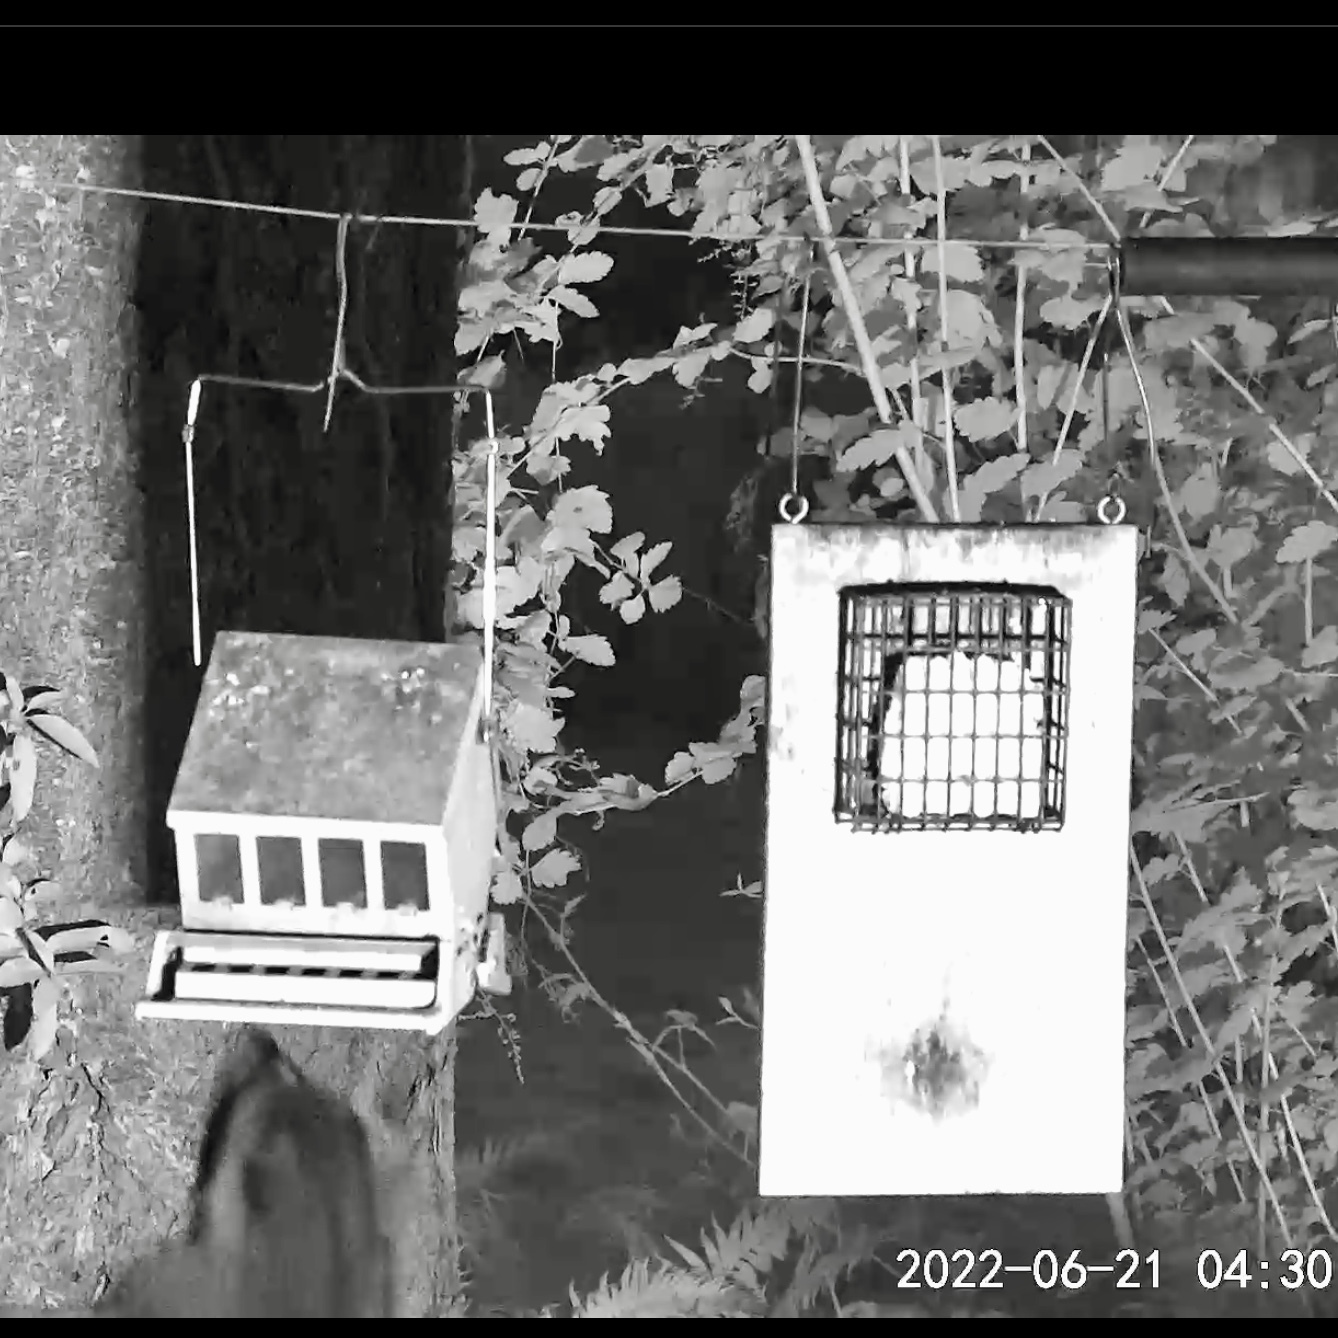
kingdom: Animalia
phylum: Chordata
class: Mammalia
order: Carnivora
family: Procyonidae
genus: Procyon
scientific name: Procyon lotor
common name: Raccoon
